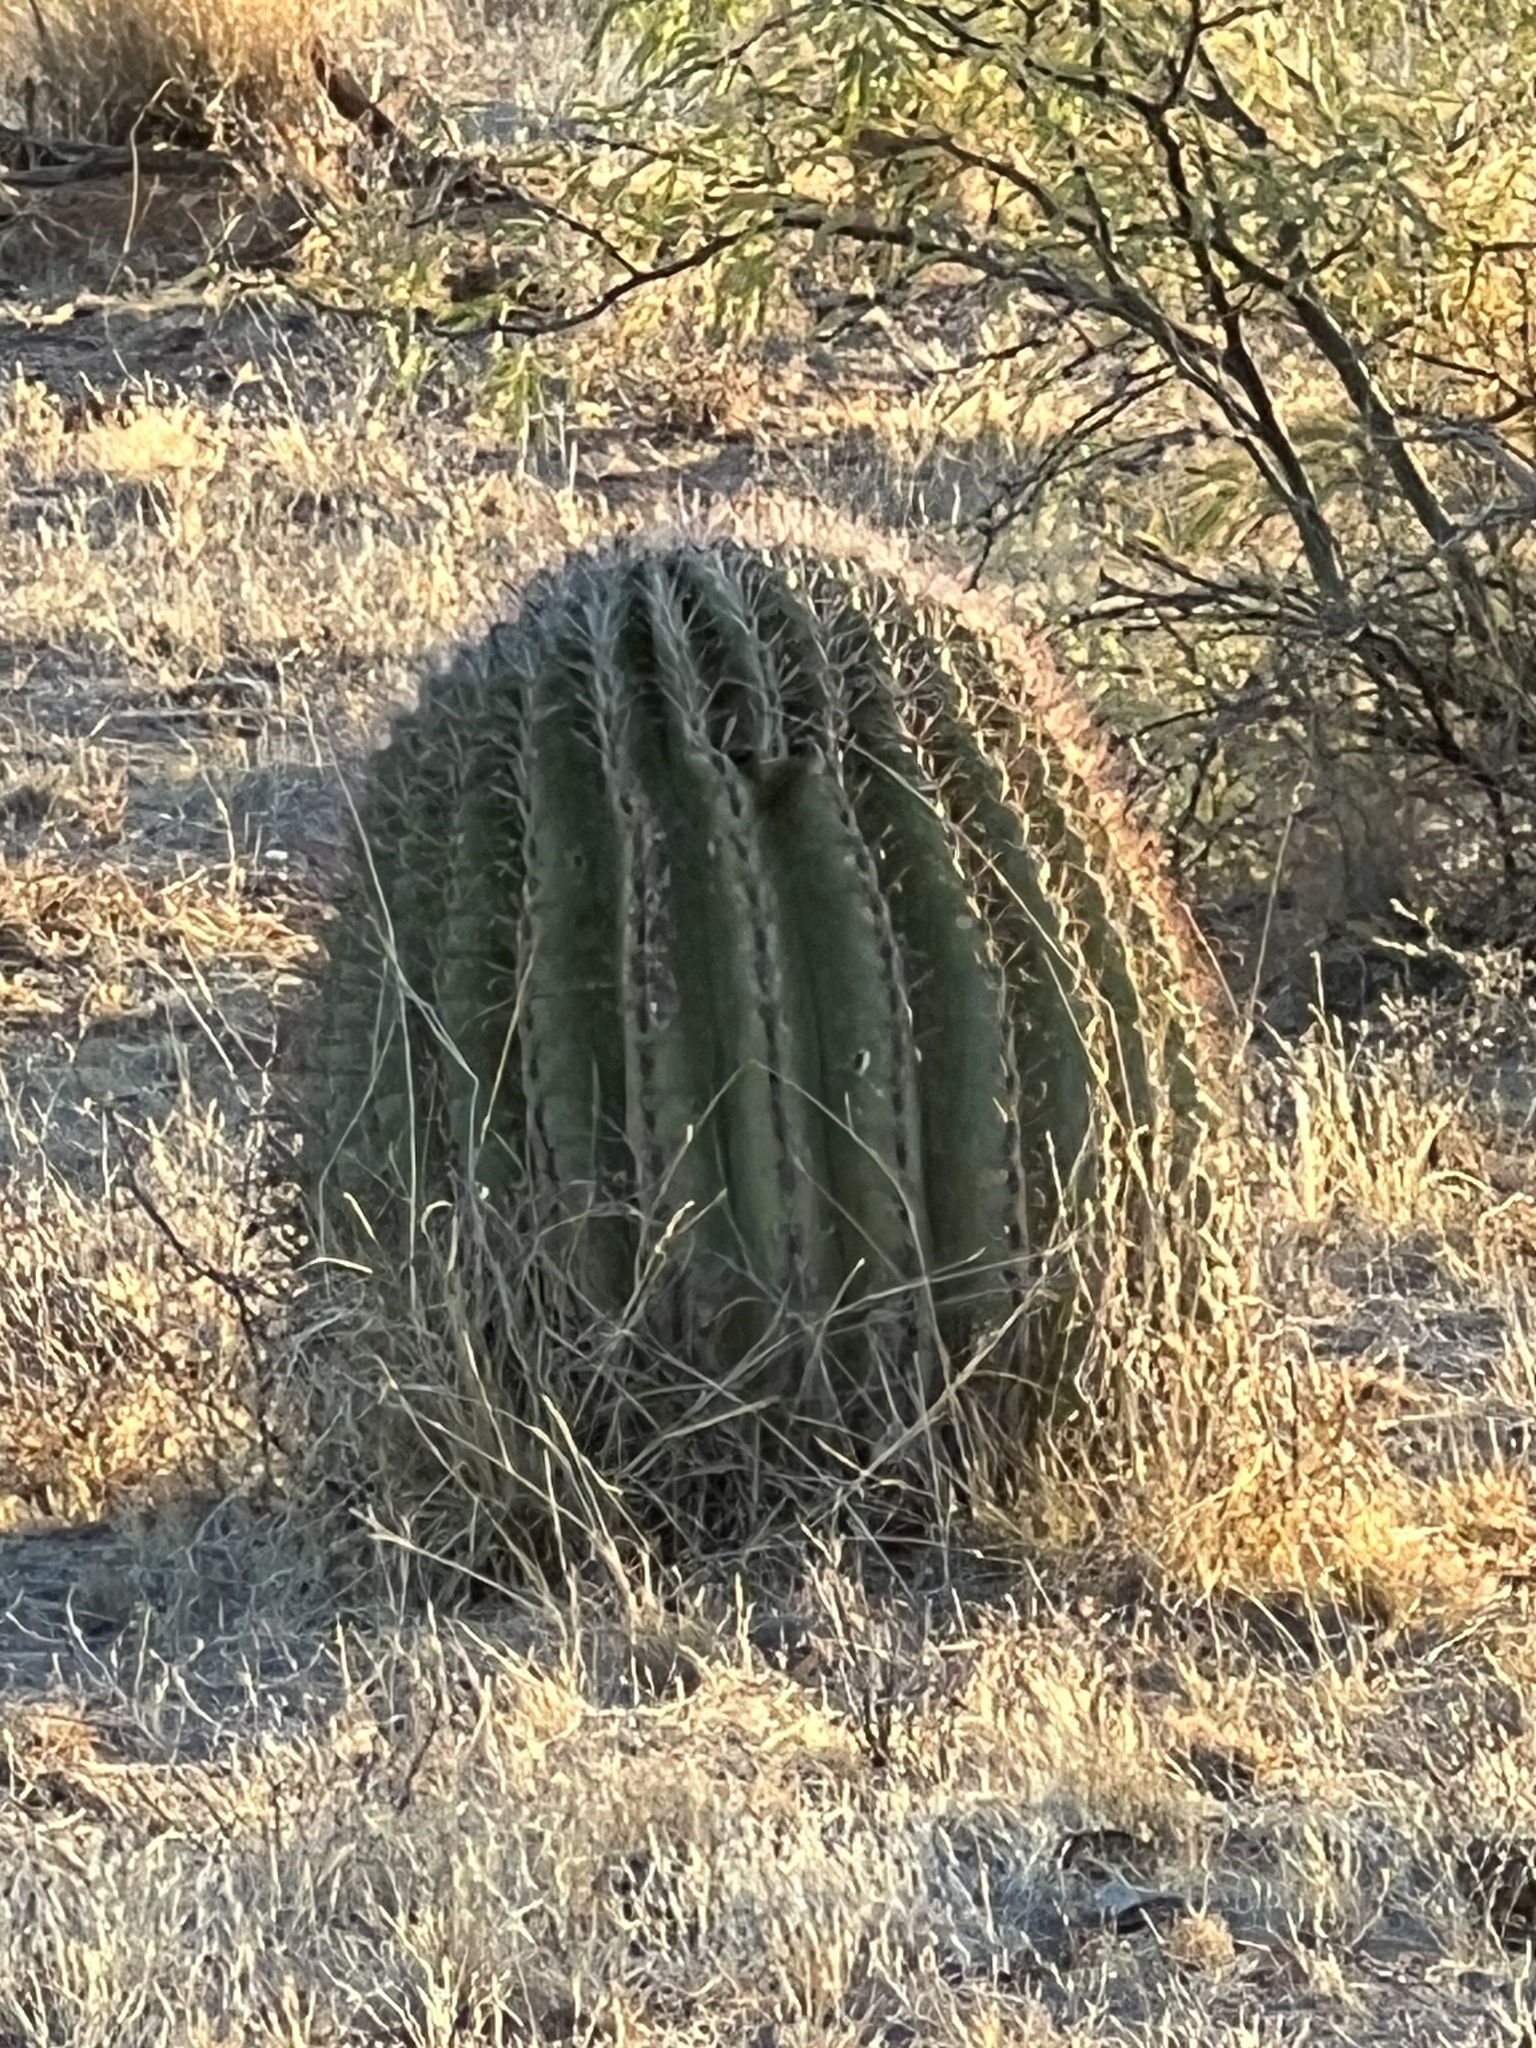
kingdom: Plantae
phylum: Tracheophyta
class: Magnoliopsida
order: Caryophyllales
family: Cactaceae
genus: Ferocactus
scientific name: Ferocactus wislizeni
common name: Candy barrel cactus
